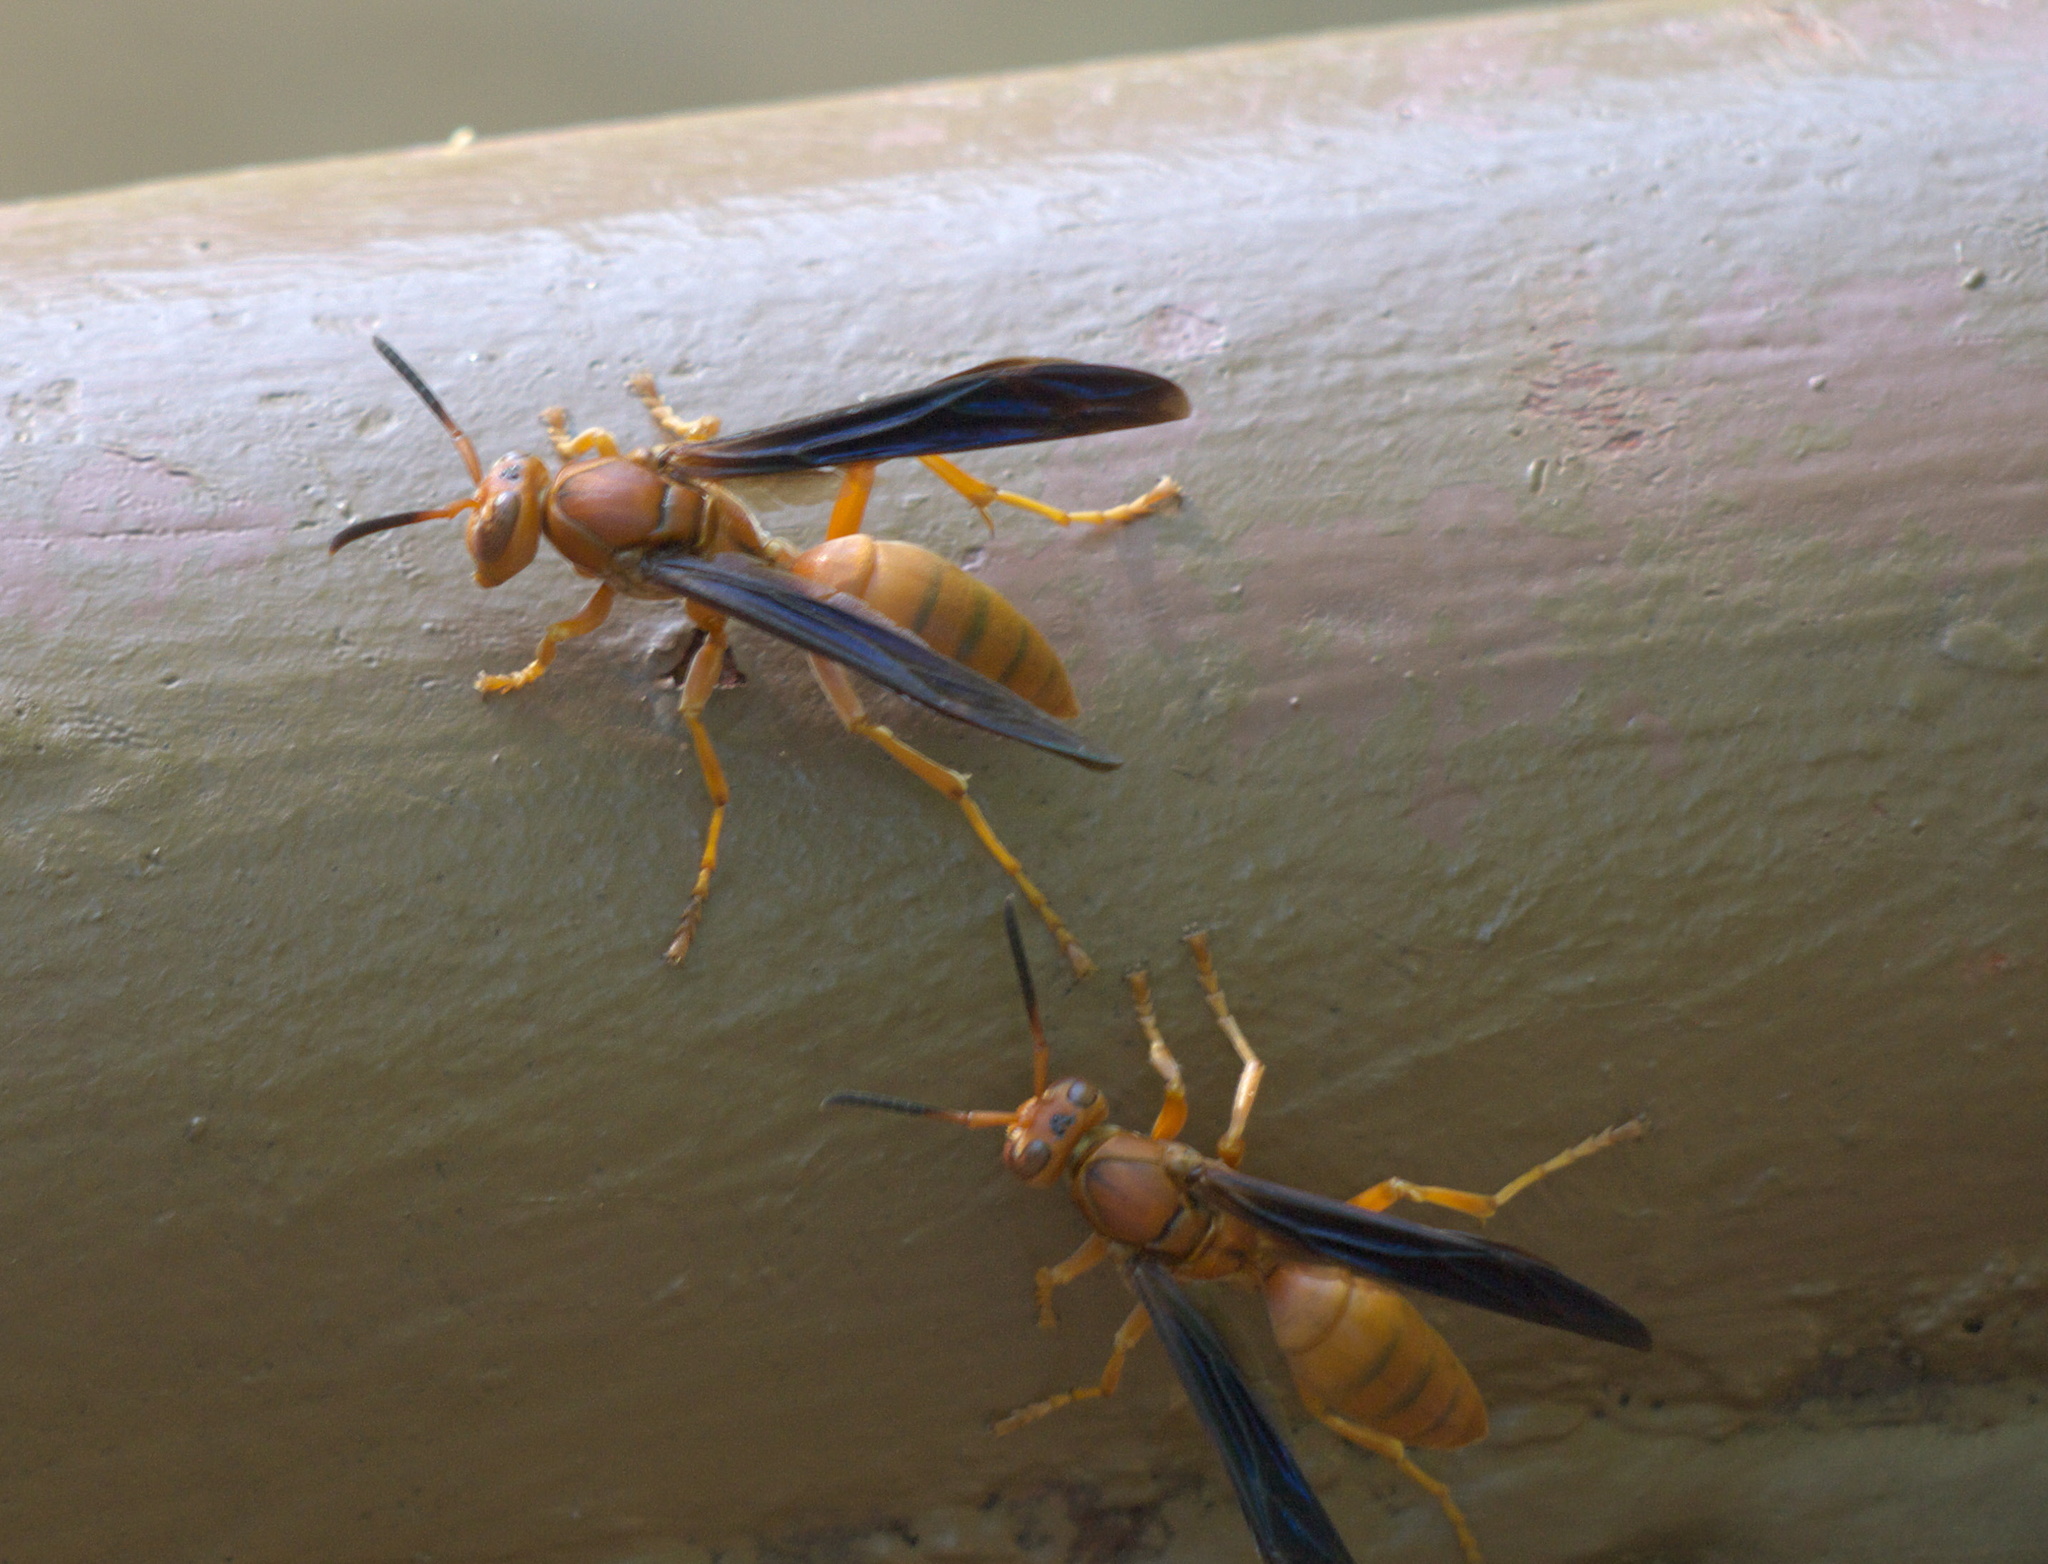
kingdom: Animalia
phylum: Arthropoda
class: Insecta
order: Hymenoptera
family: Vespidae
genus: Fuscopolistes
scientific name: Fuscopolistes
